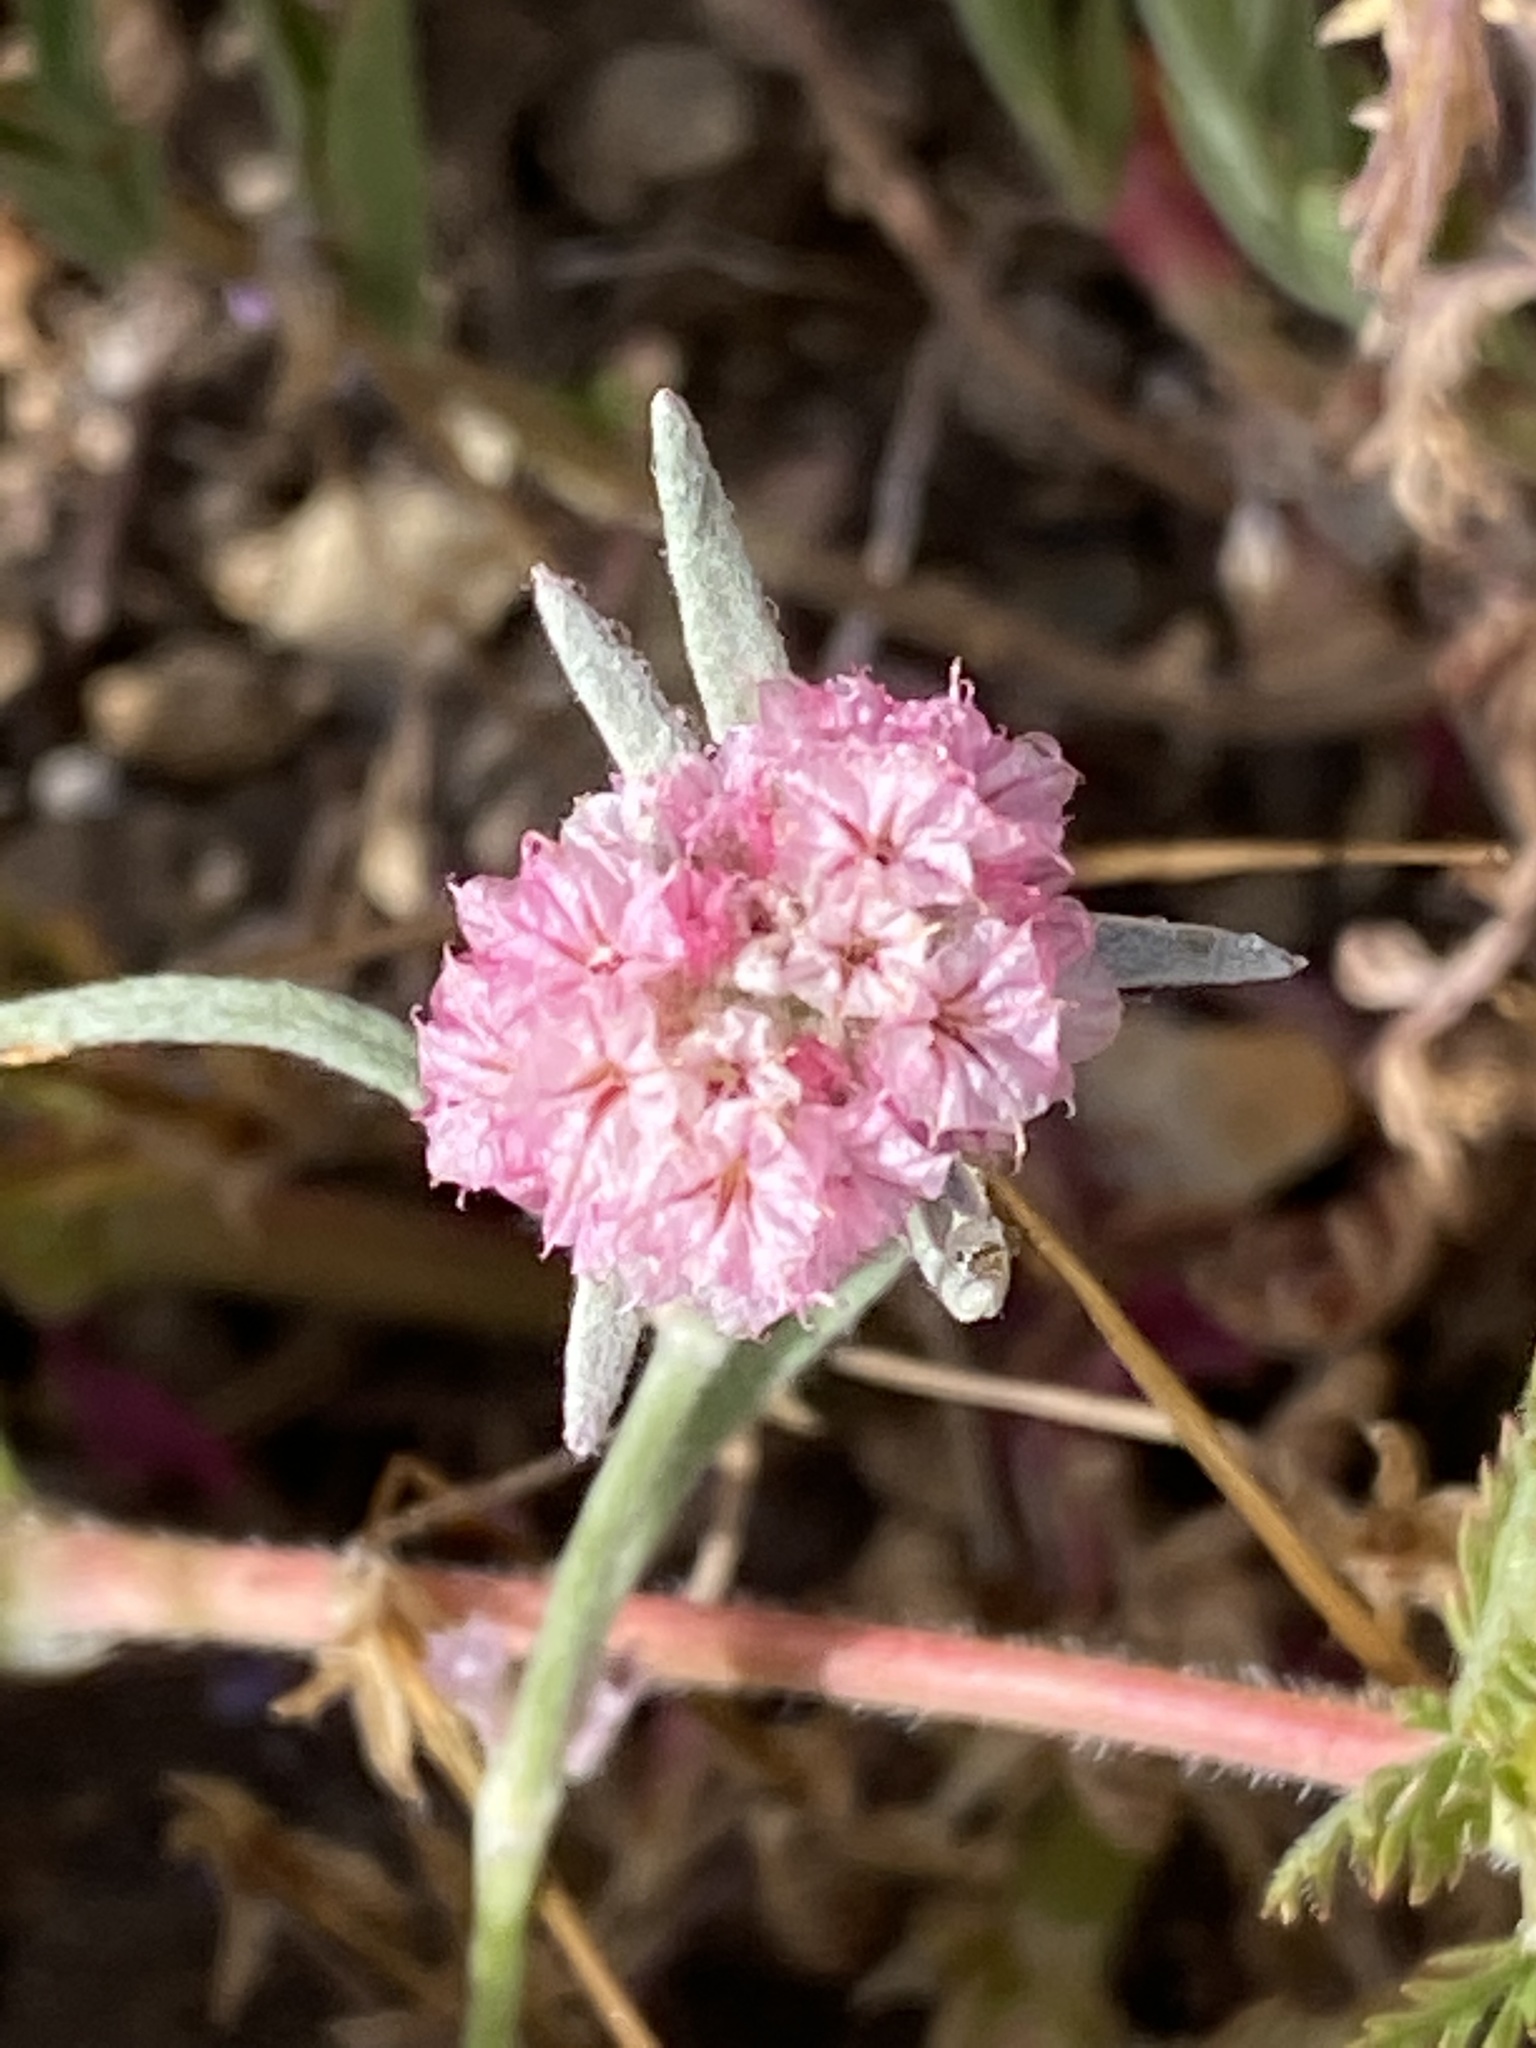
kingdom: Plantae
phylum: Tracheophyta
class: Magnoliopsida
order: Caryophyllales
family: Polygonaceae
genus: Chorizanthe
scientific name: Chorizanthe membranacea
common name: Pink spineflower
